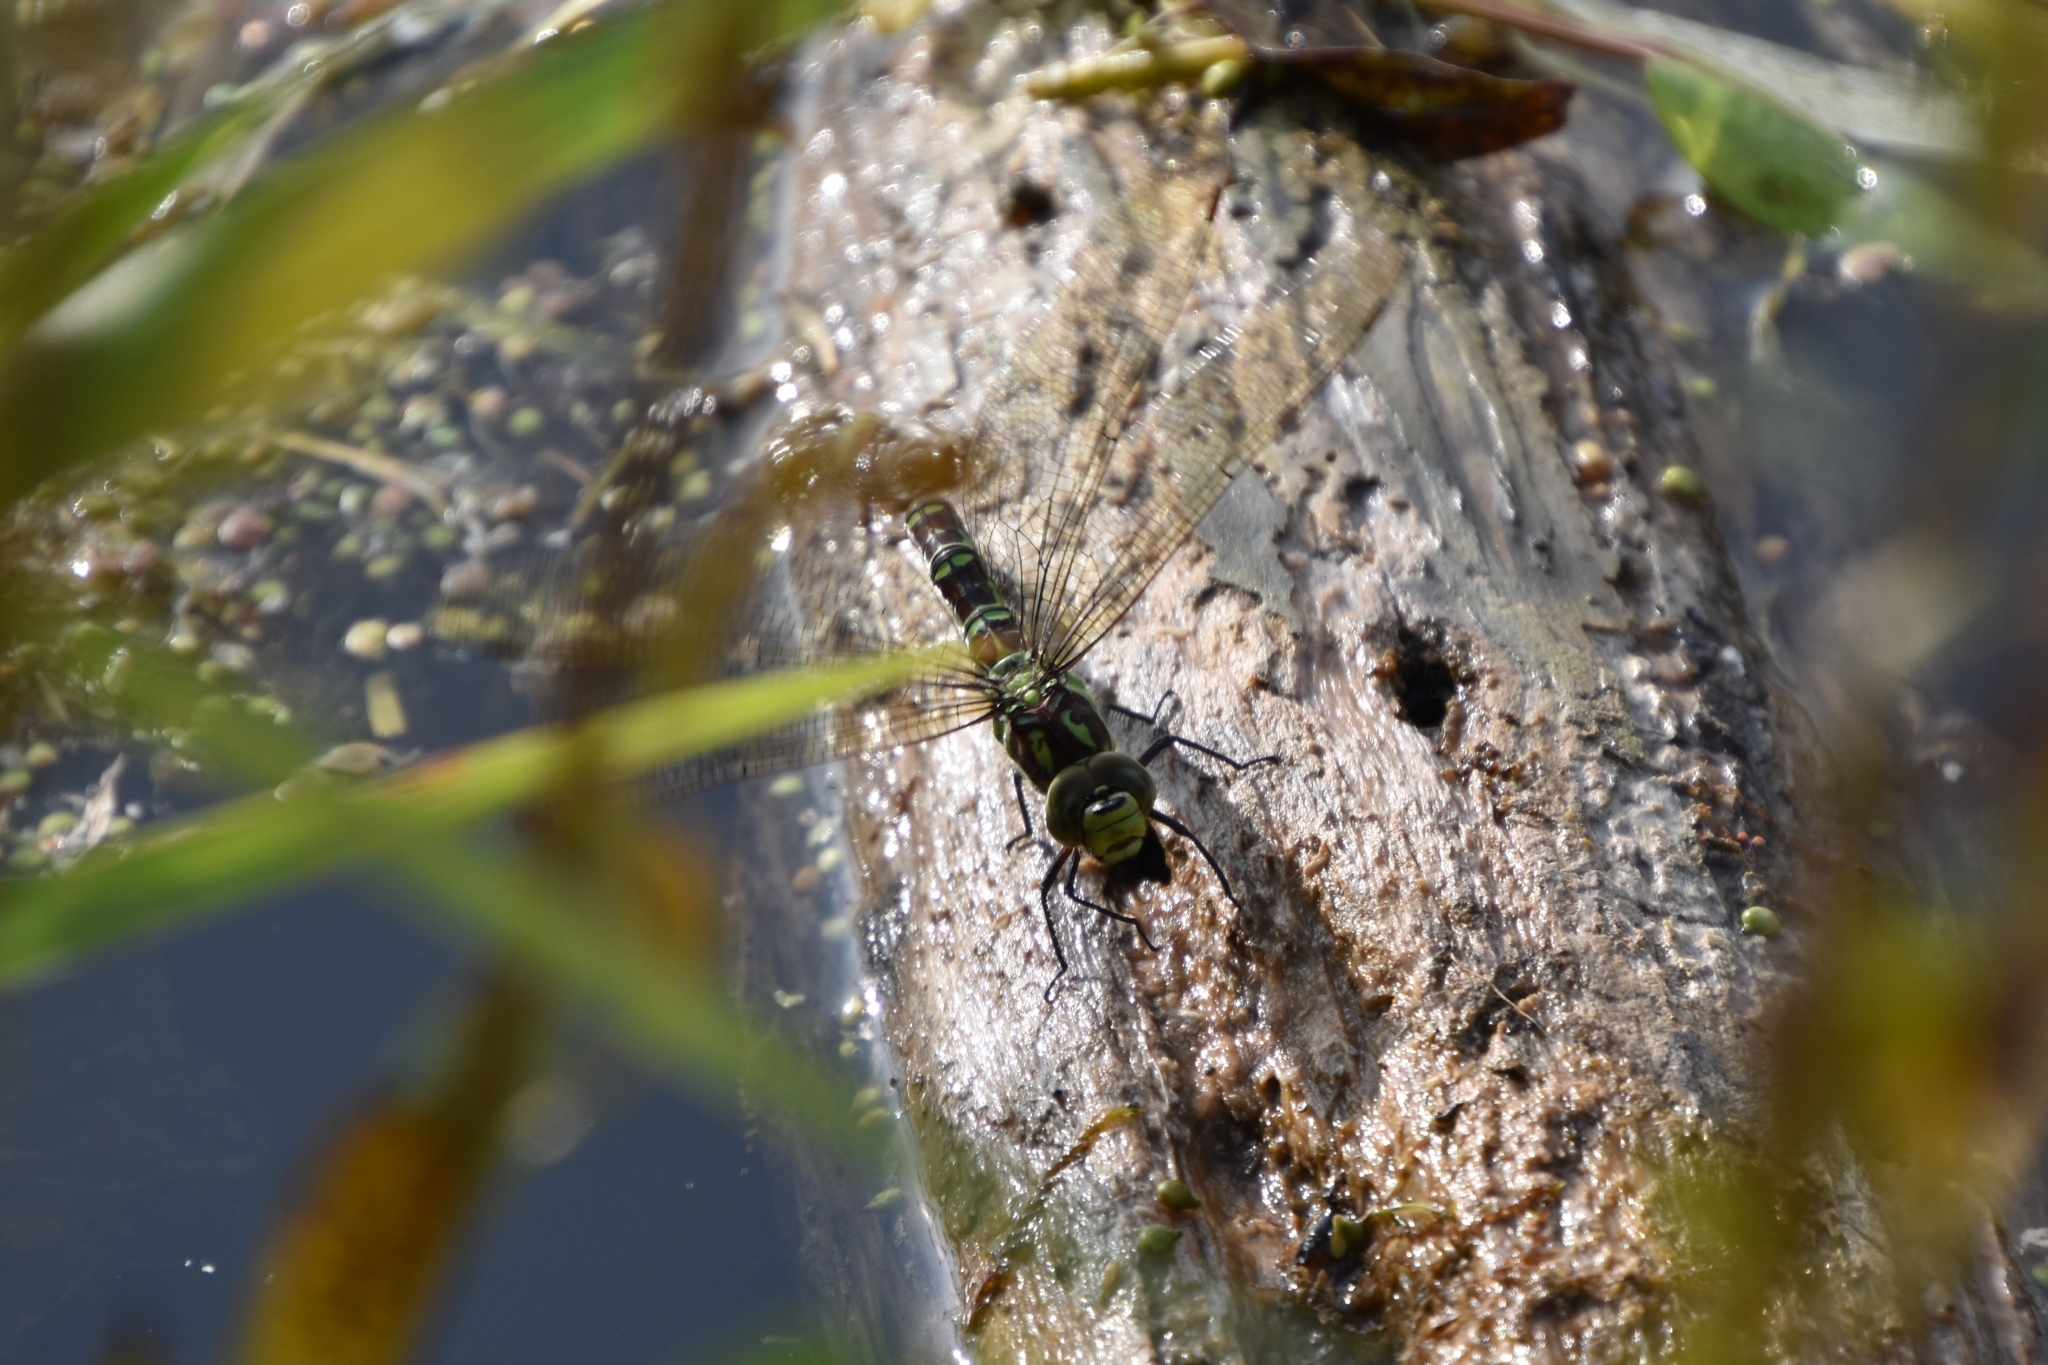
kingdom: Animalia
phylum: Arthropoda
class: Insecta
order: Odonata
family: Aeshnidae
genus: Aeshna
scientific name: Aeshna cyanea
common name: Southern hawker
